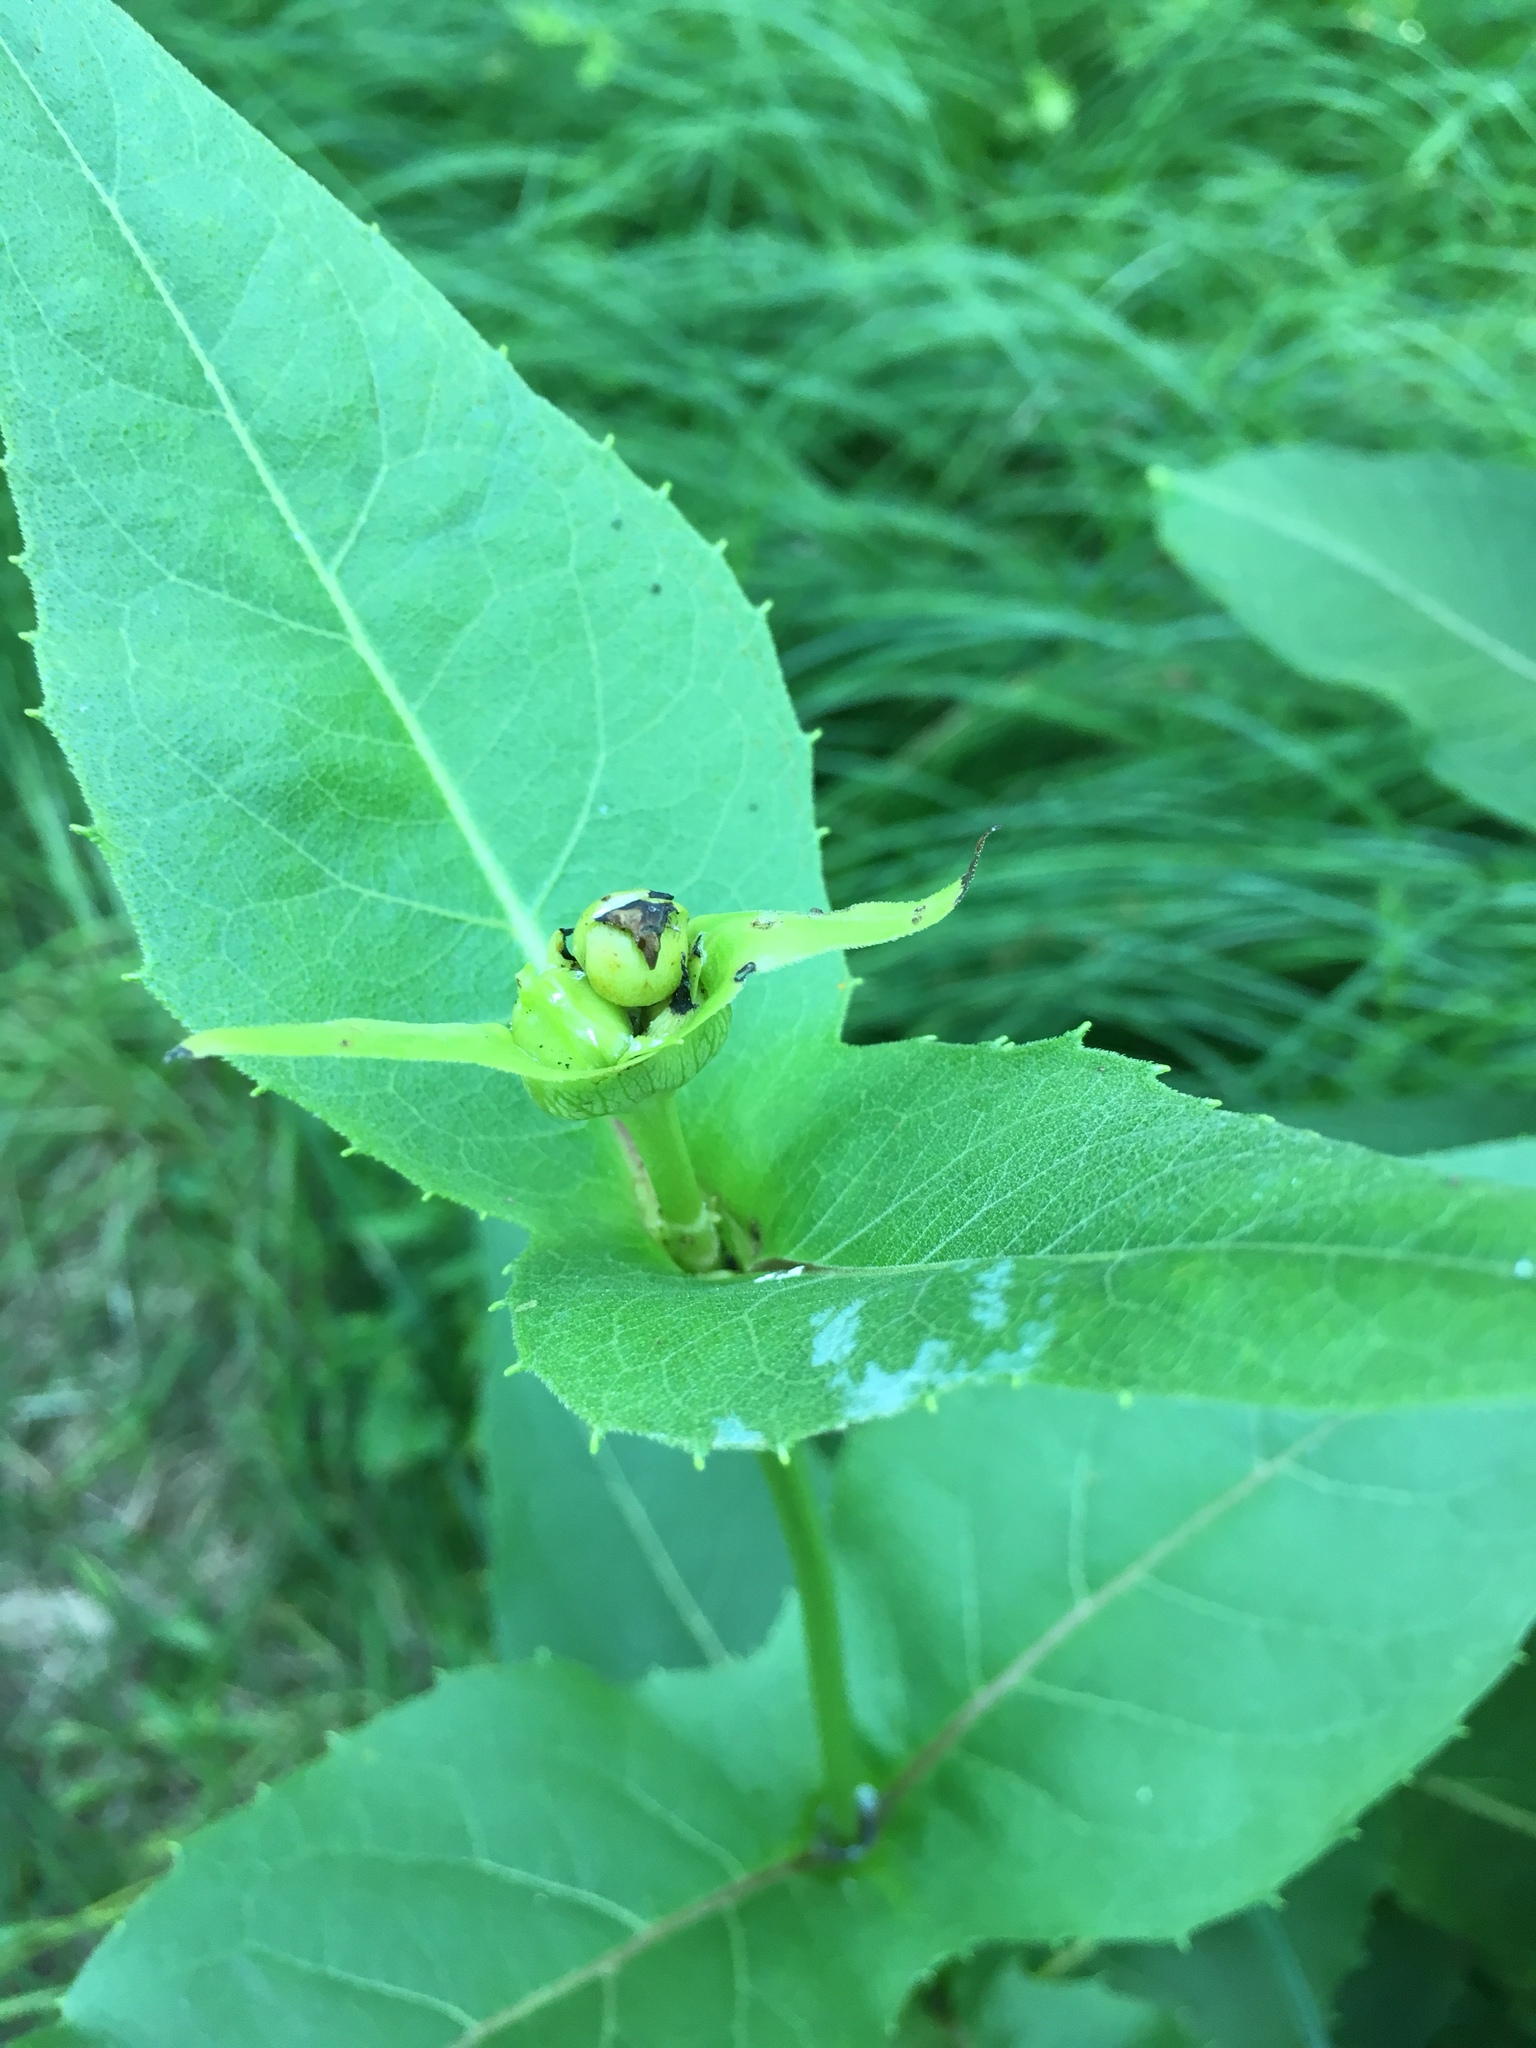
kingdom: Plantae
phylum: Tracheophyta
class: Magnoliopsida
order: Asterales
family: Asteraceae
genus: Silphium
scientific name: Silphium perfoliatum
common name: Cup-plant
